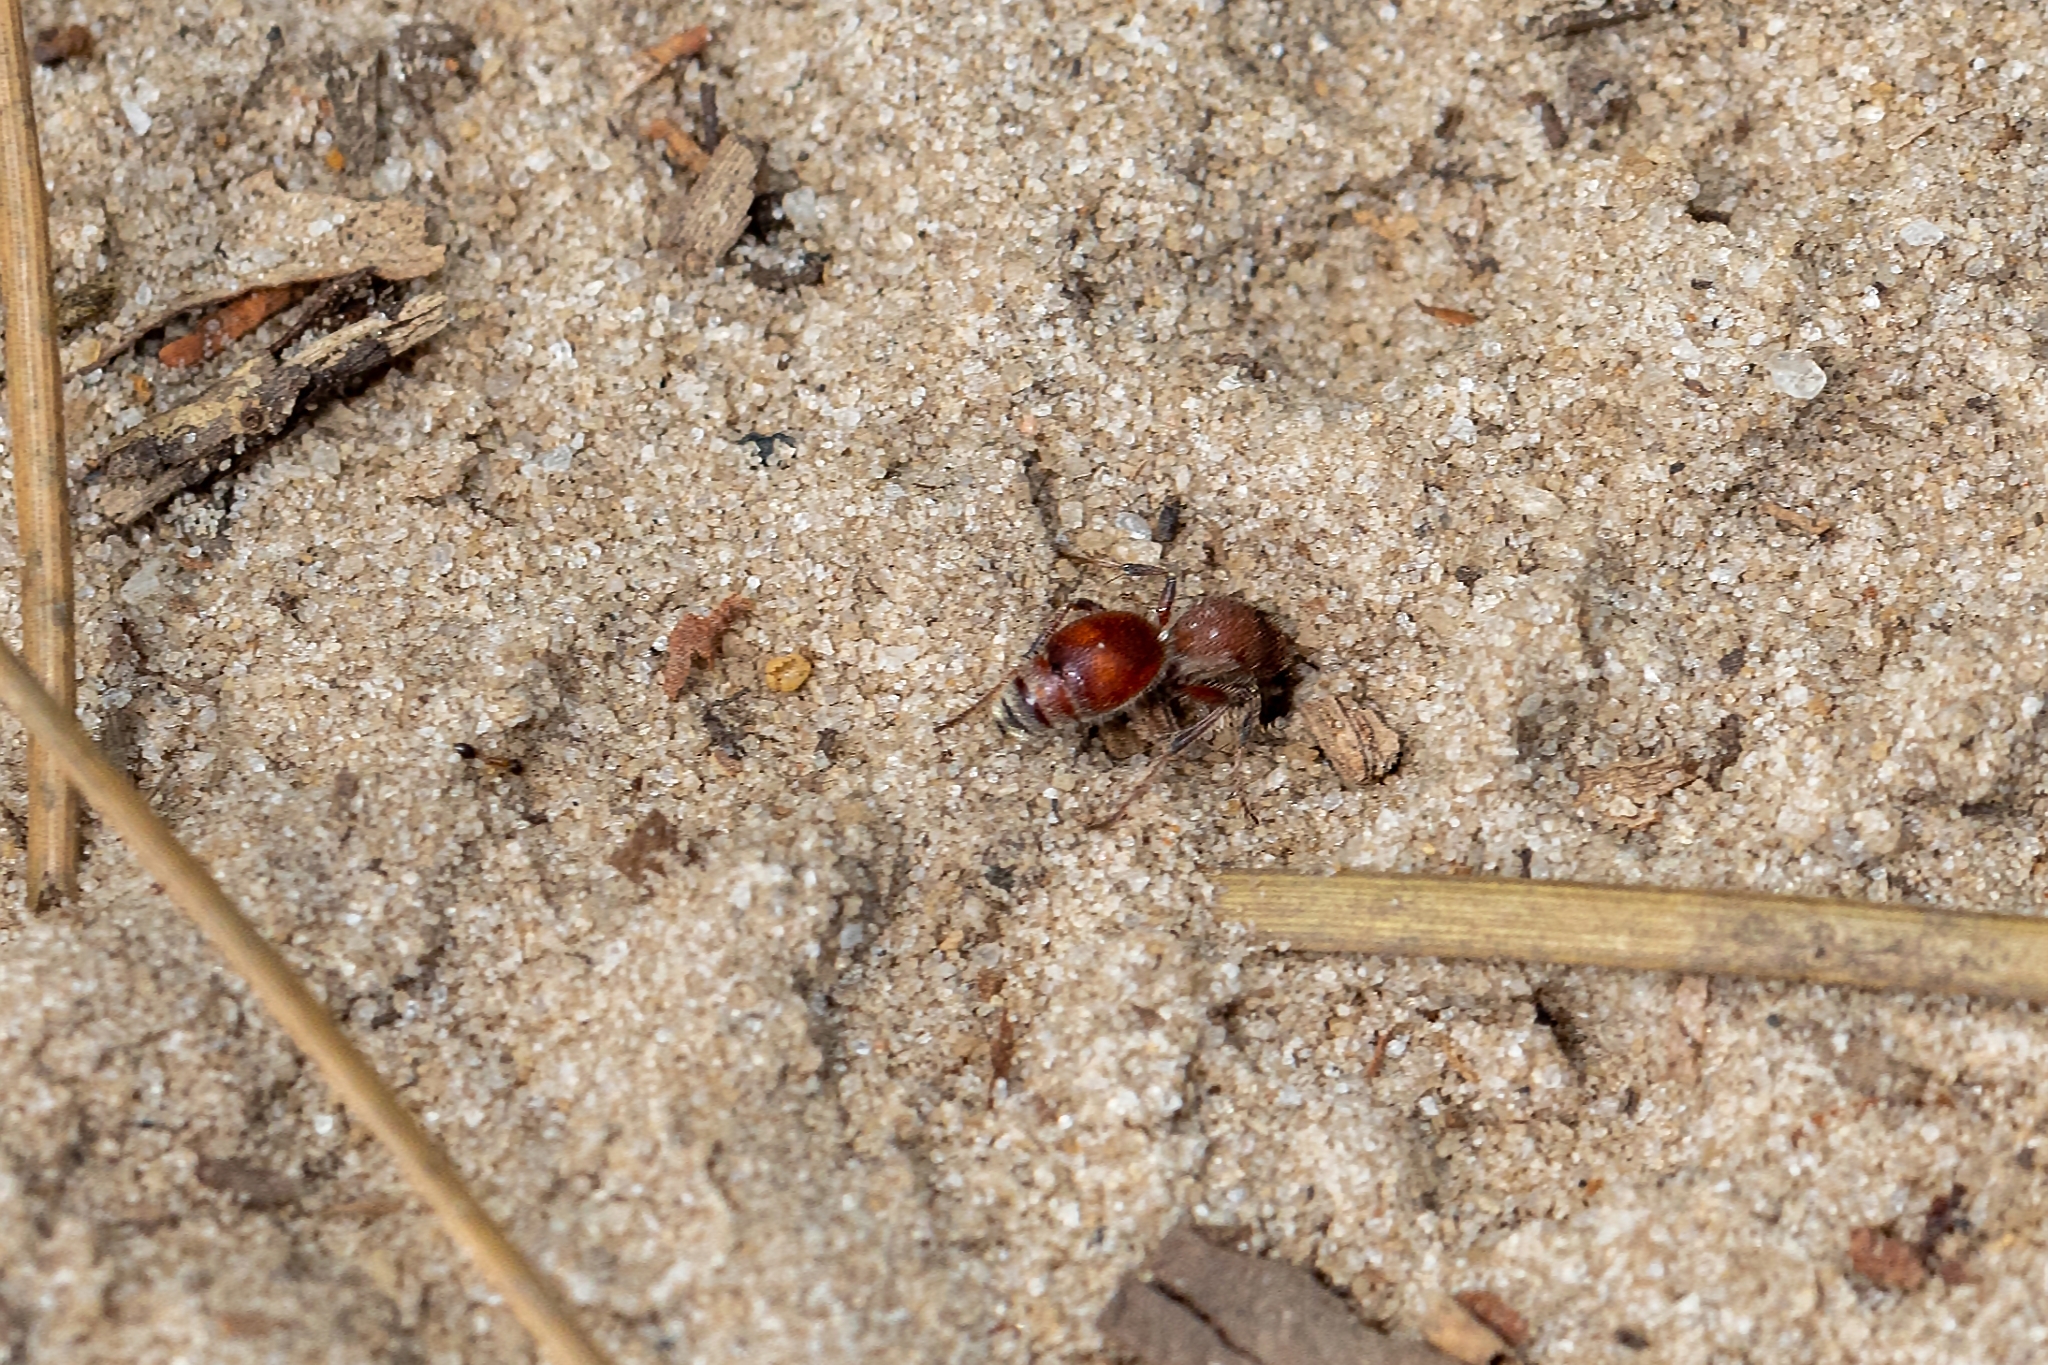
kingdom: Animalia
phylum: Arthropoda
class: Insecta
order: Hymenoptera
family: Mutillidae
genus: Dasymutilla
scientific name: Dasymutilla arenerronea
